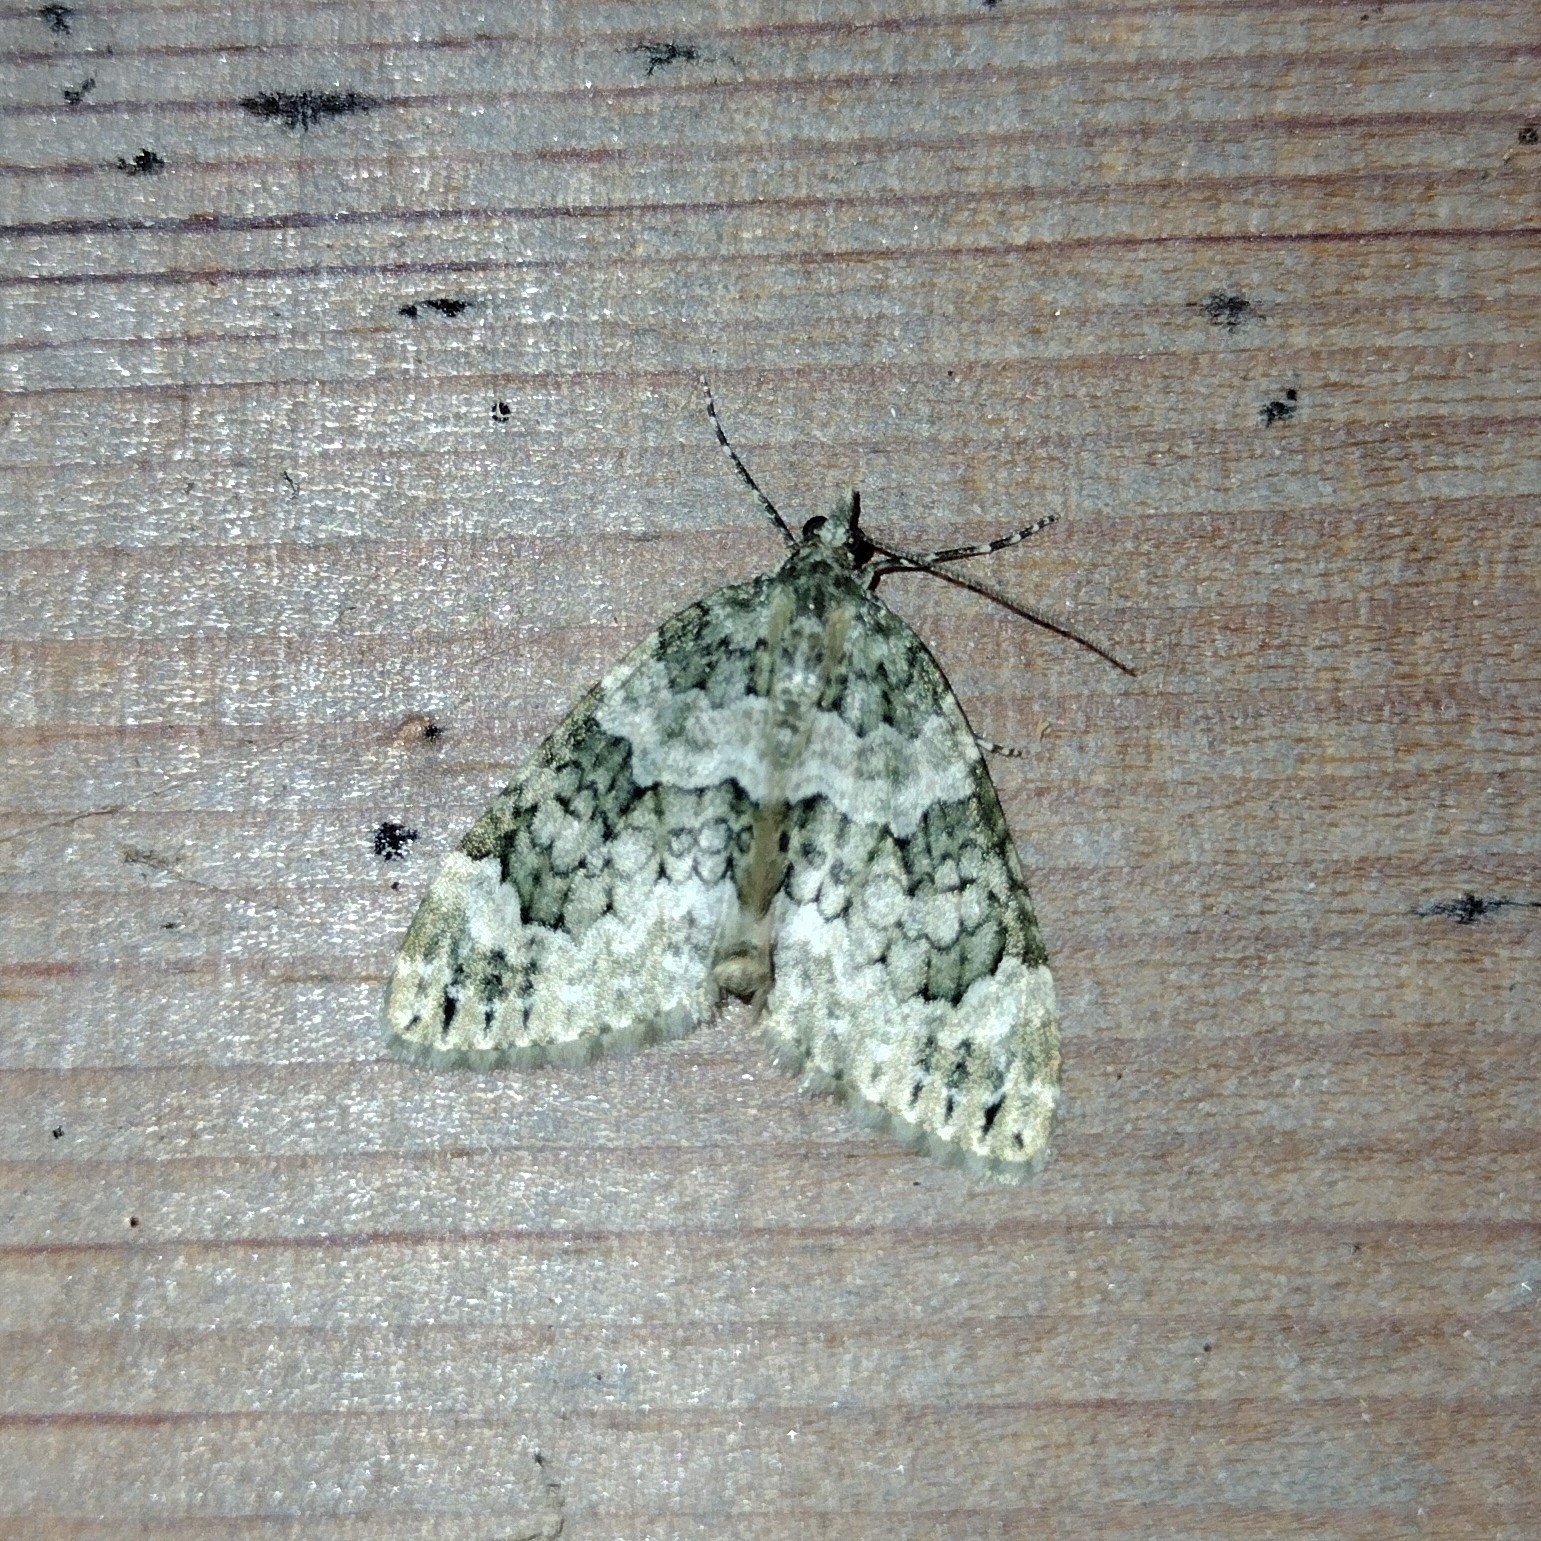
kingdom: Animalia
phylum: Arthropoda
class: Insecta
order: Lepidoptera
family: Geometridae
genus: Chloroclysta
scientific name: Chloroclysta miata
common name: Autumn green carpet
